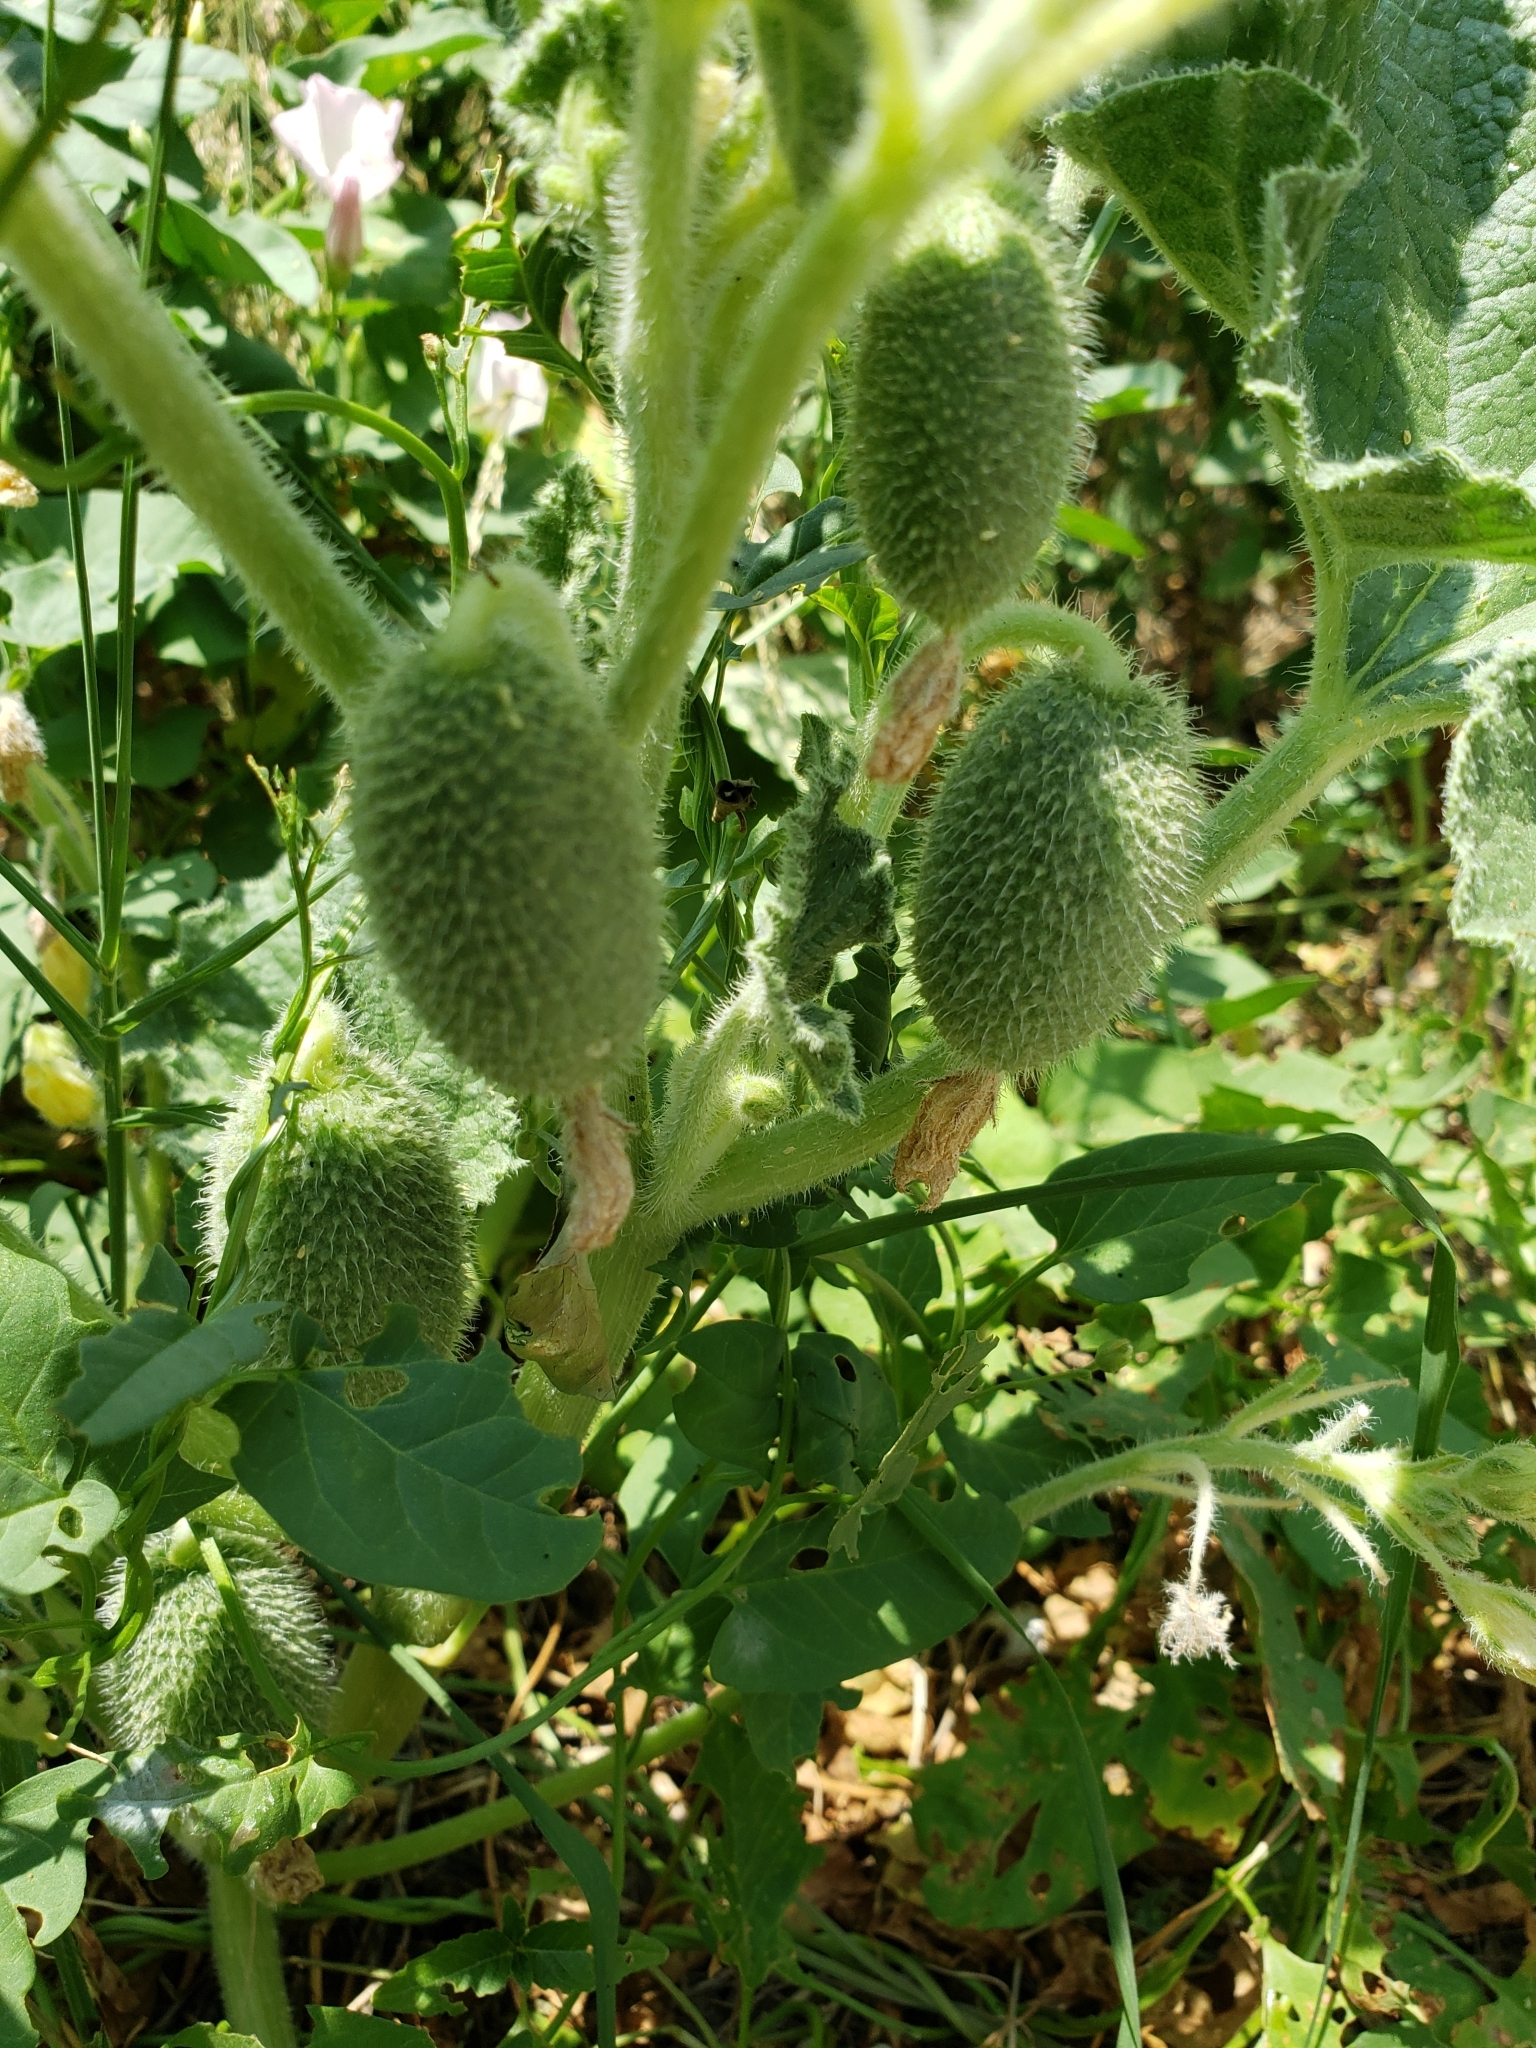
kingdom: Plantae
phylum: Tracheophyta
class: Magnoliopsida
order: Cucurbitales
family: Cucurbitaceae
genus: Ecballium
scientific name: Ecballium elaterium
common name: Squirting cucumber
